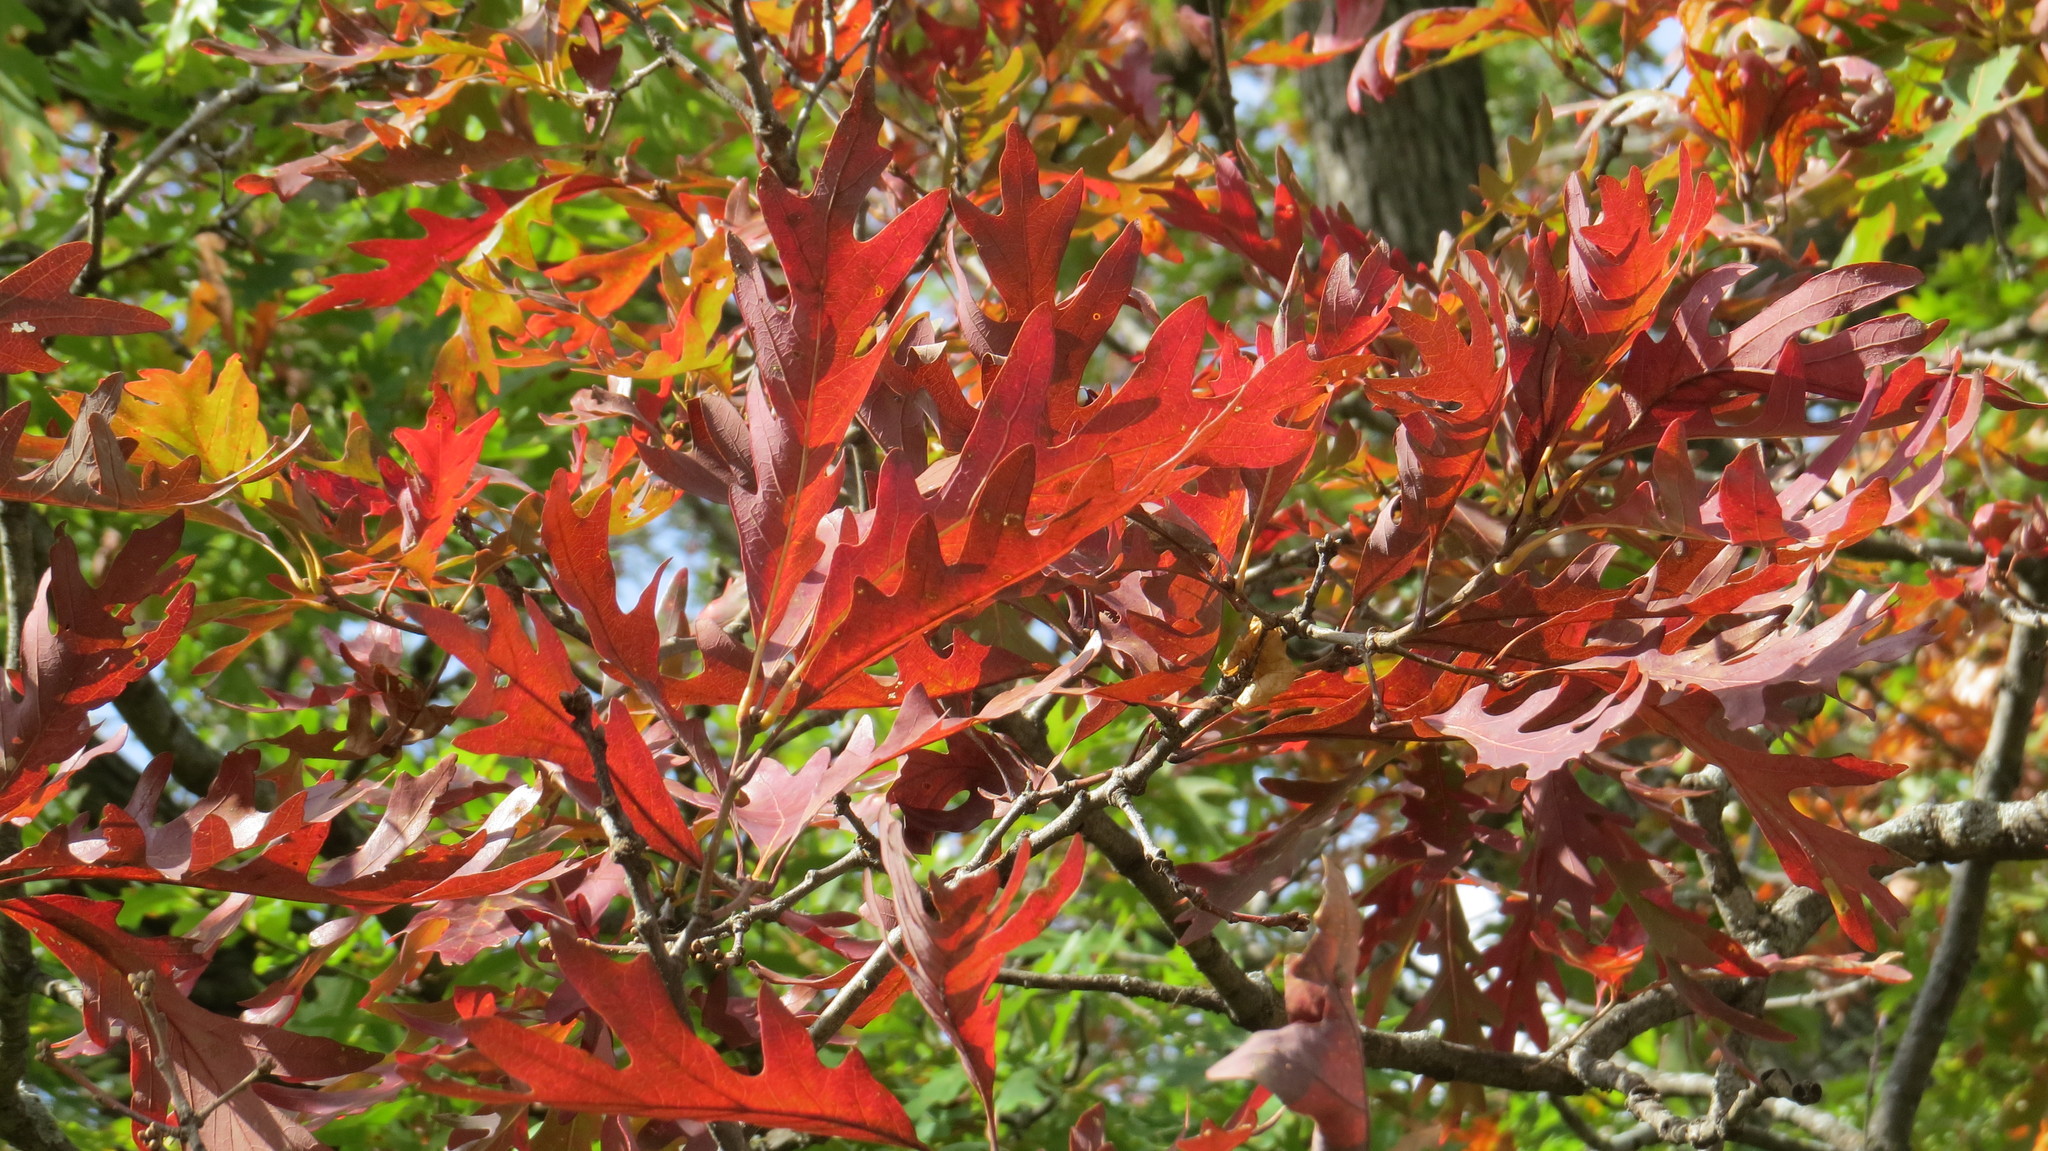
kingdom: Plantae
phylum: Tracheophyta
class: Magnoliopsida
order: Fagales
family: Fagaceae
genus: Quercus
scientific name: Quercus alba
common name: White oak
